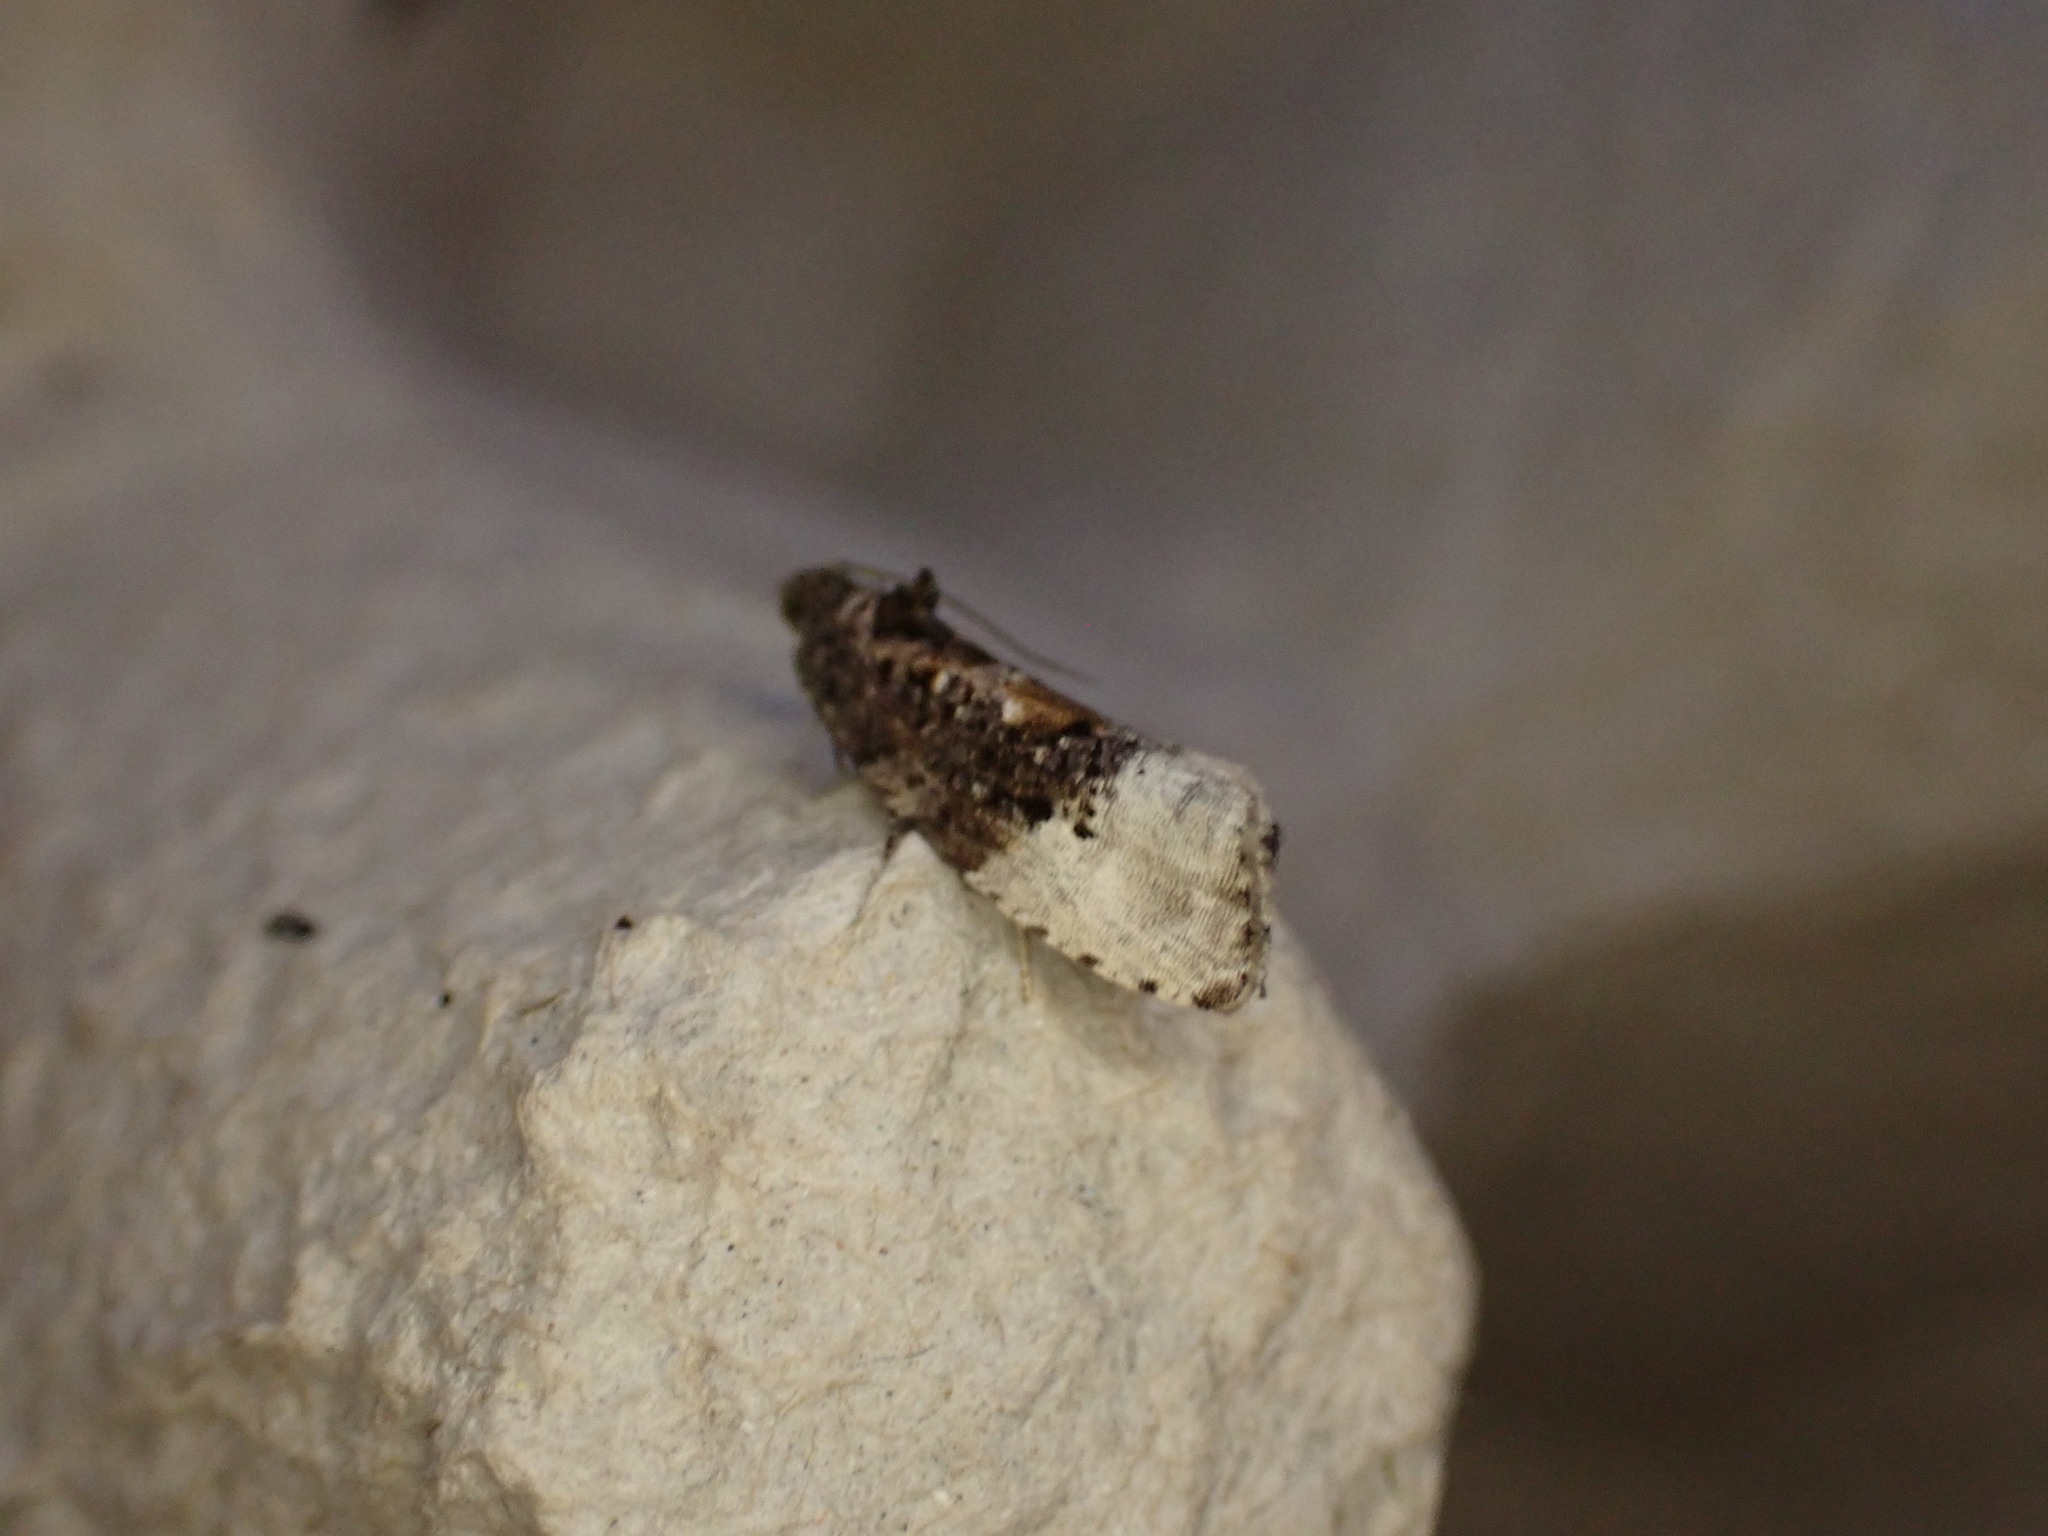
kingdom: Animalia
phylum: Arthropoda
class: Insecta
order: Lepidoptera
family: Tortricidae
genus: Hedya
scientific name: Hedya nubiferana
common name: Marbled orchard tortrix
